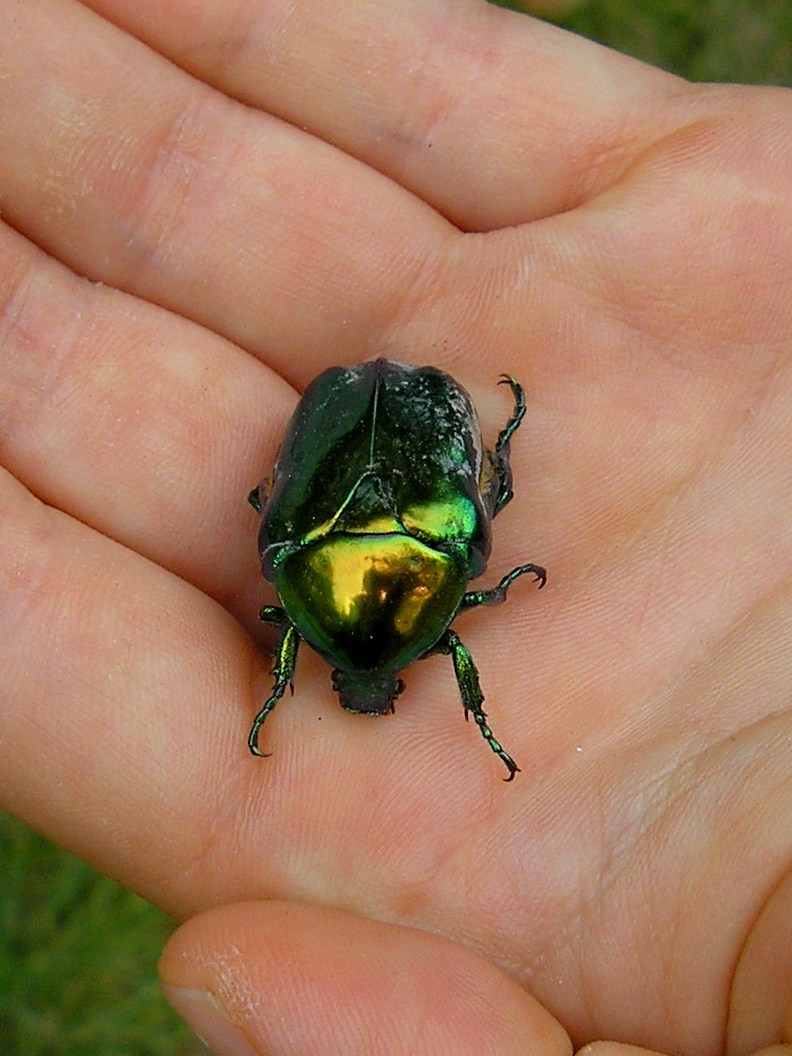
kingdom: Animalia
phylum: Arthropoda
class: Insecta
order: Coleoptera
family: Scarabaeidae
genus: Protaetia
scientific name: Protaetia speciosissima
